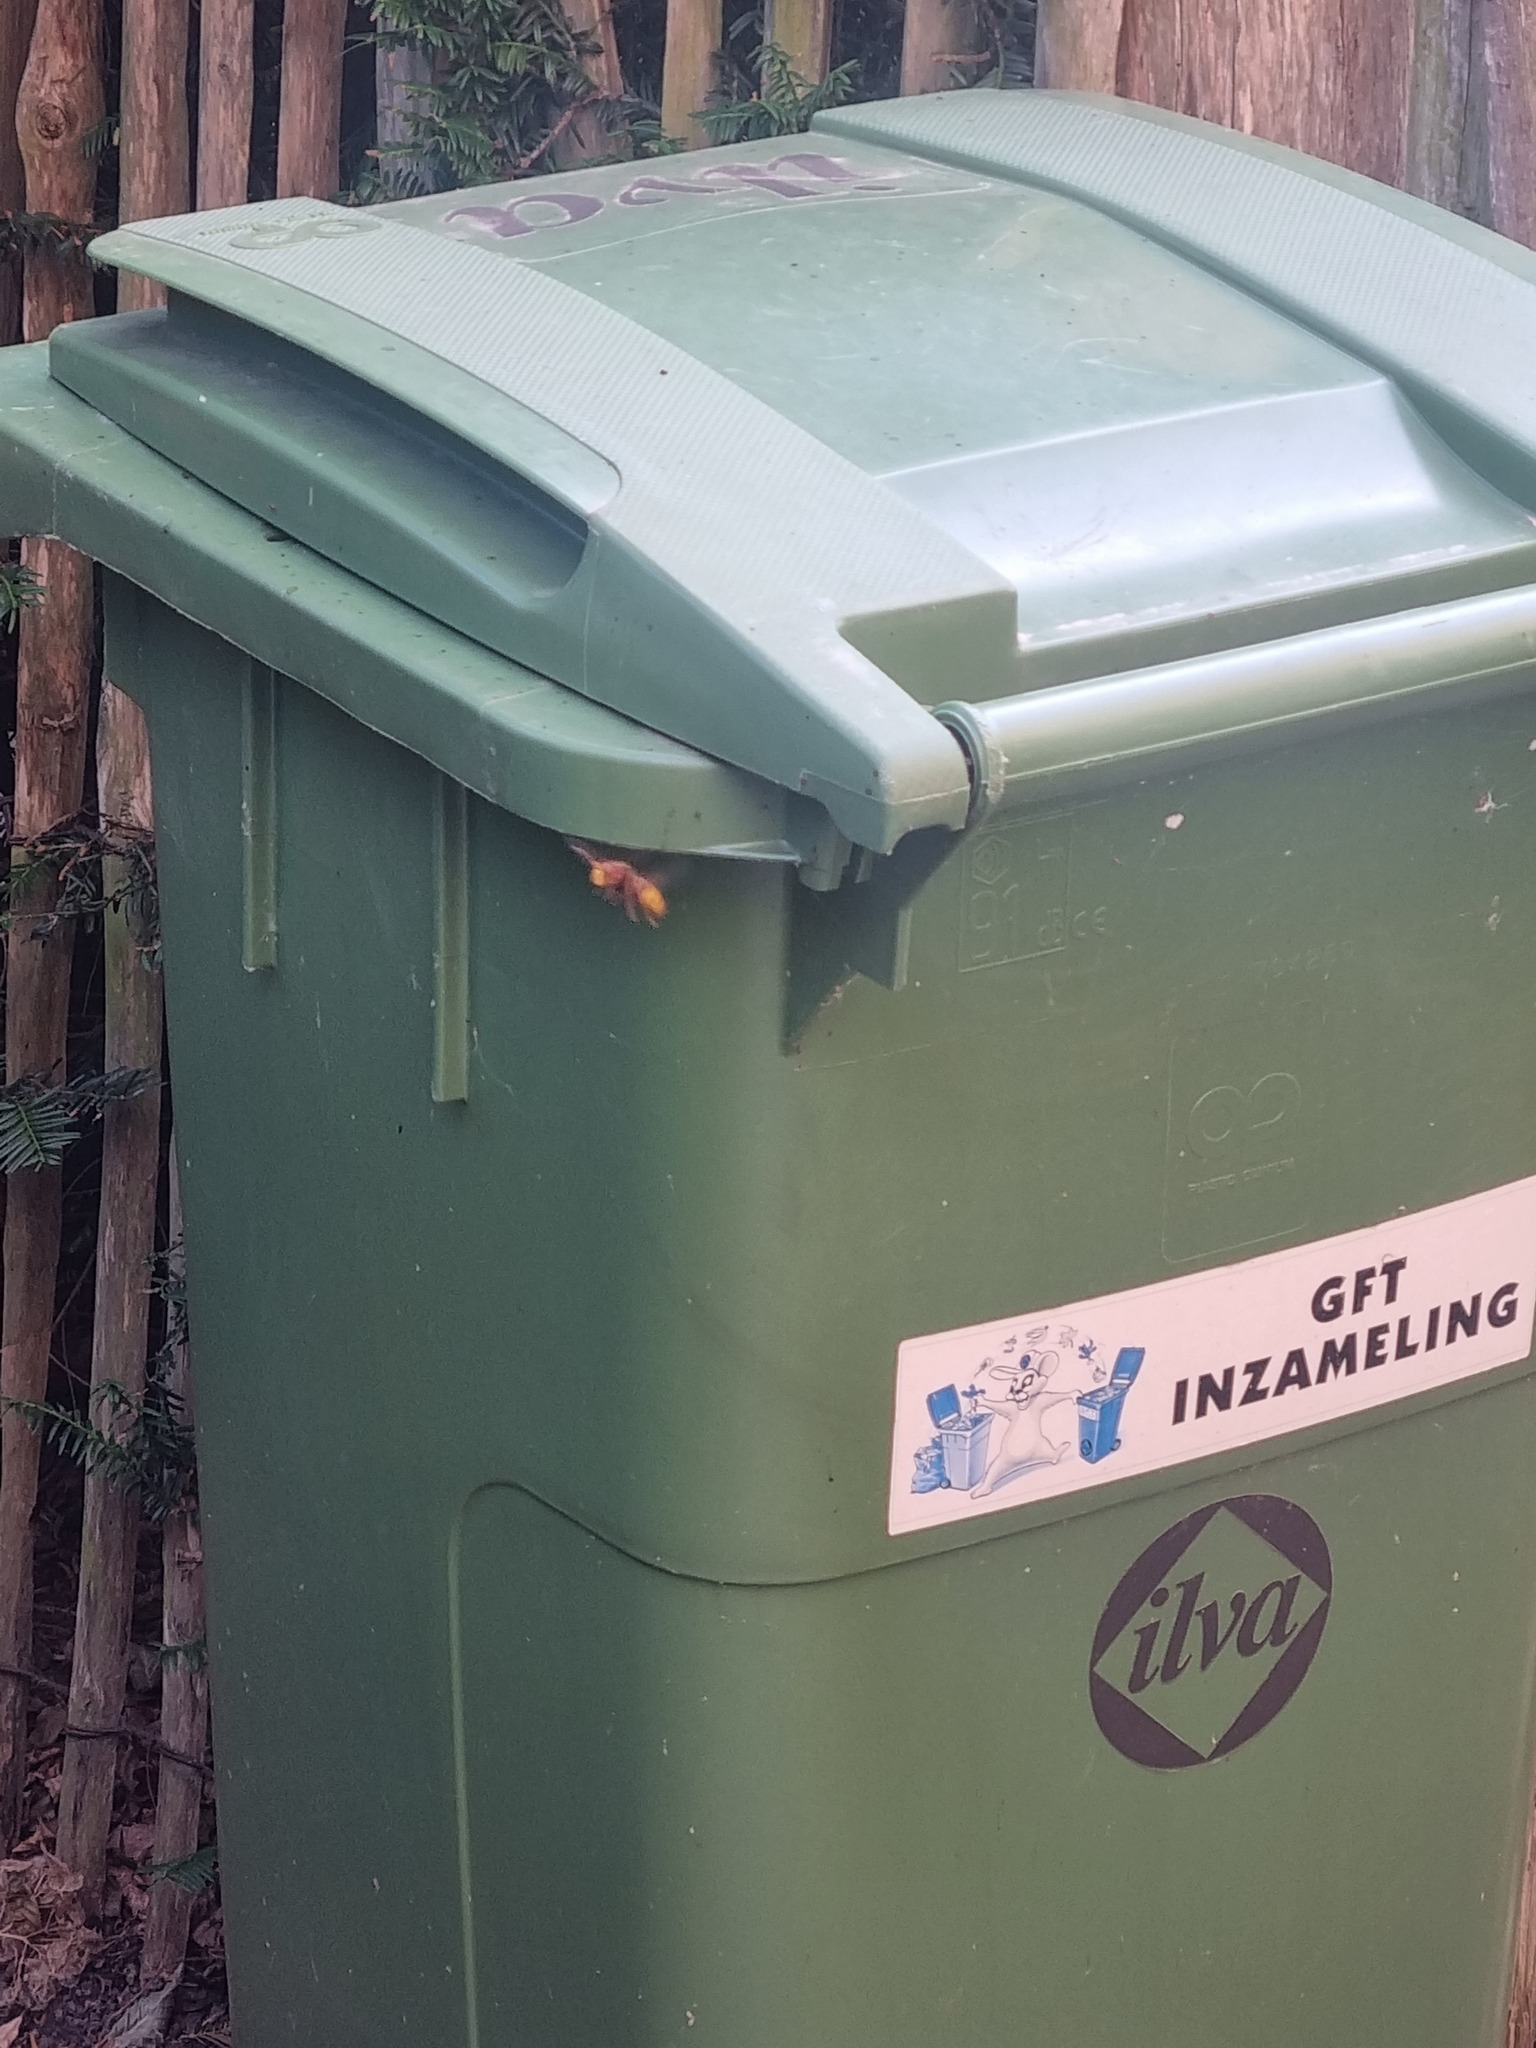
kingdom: Animalia
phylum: Arthropoda
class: Insecta
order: Hymenoptera
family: Vespidae
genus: Vespa
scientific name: Vespa crabro
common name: Hornet
